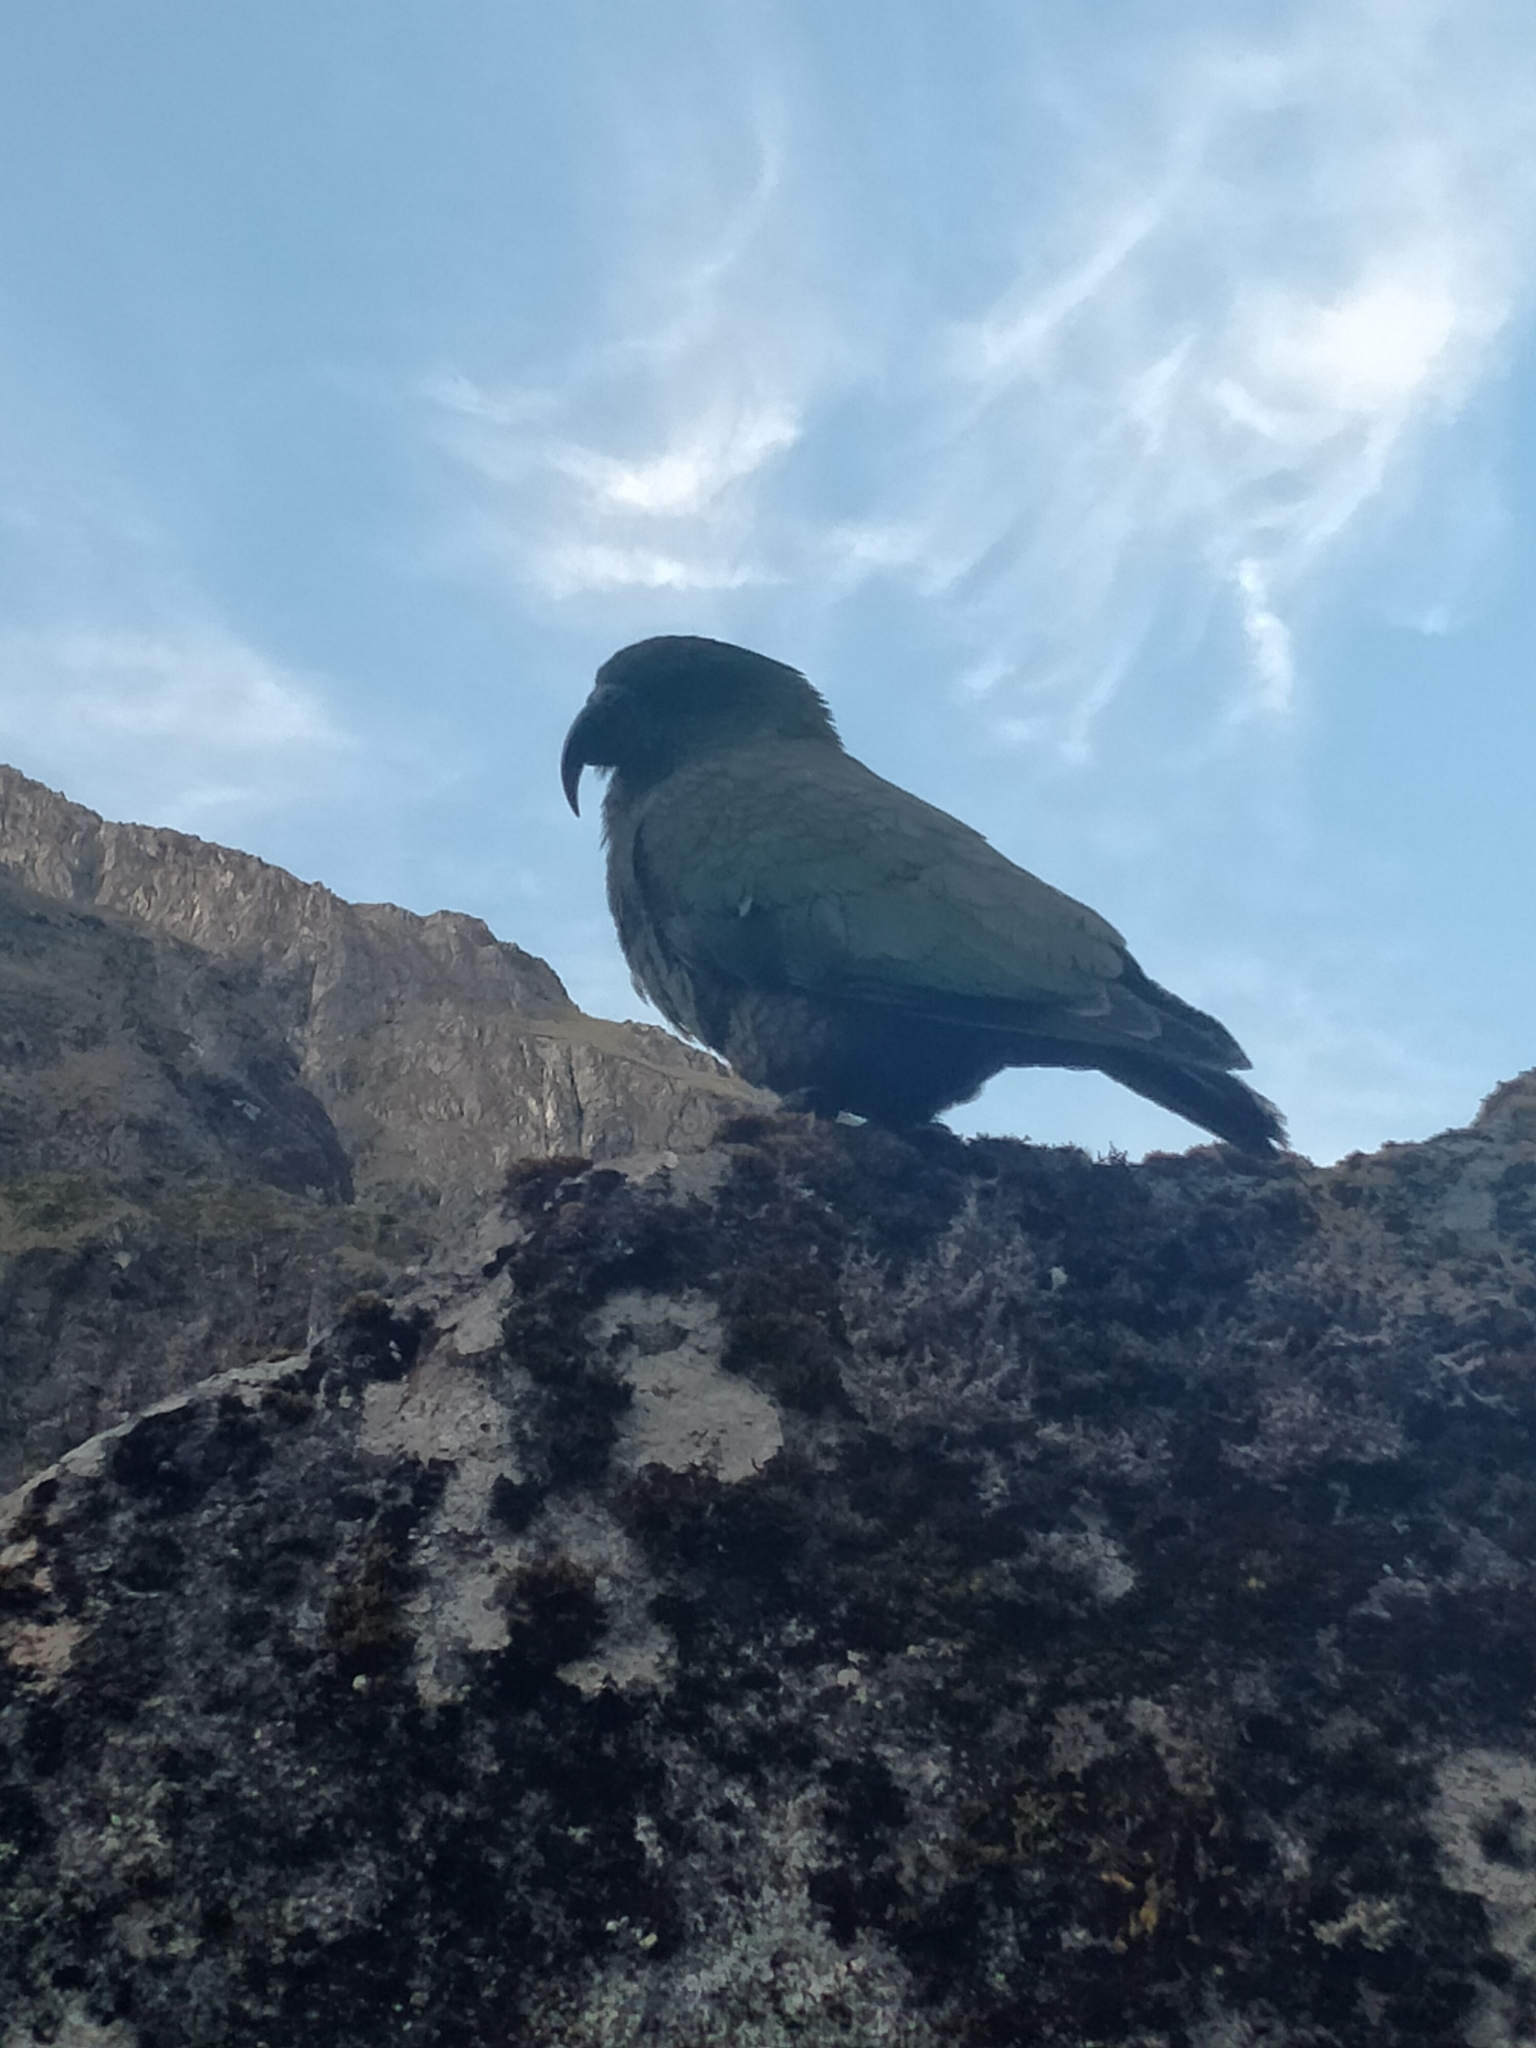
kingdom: Animalia
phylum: Chordata
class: Aves
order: Psittaciformes
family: Psittacidae
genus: Nestor
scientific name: Nestor notabilis
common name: Kea
